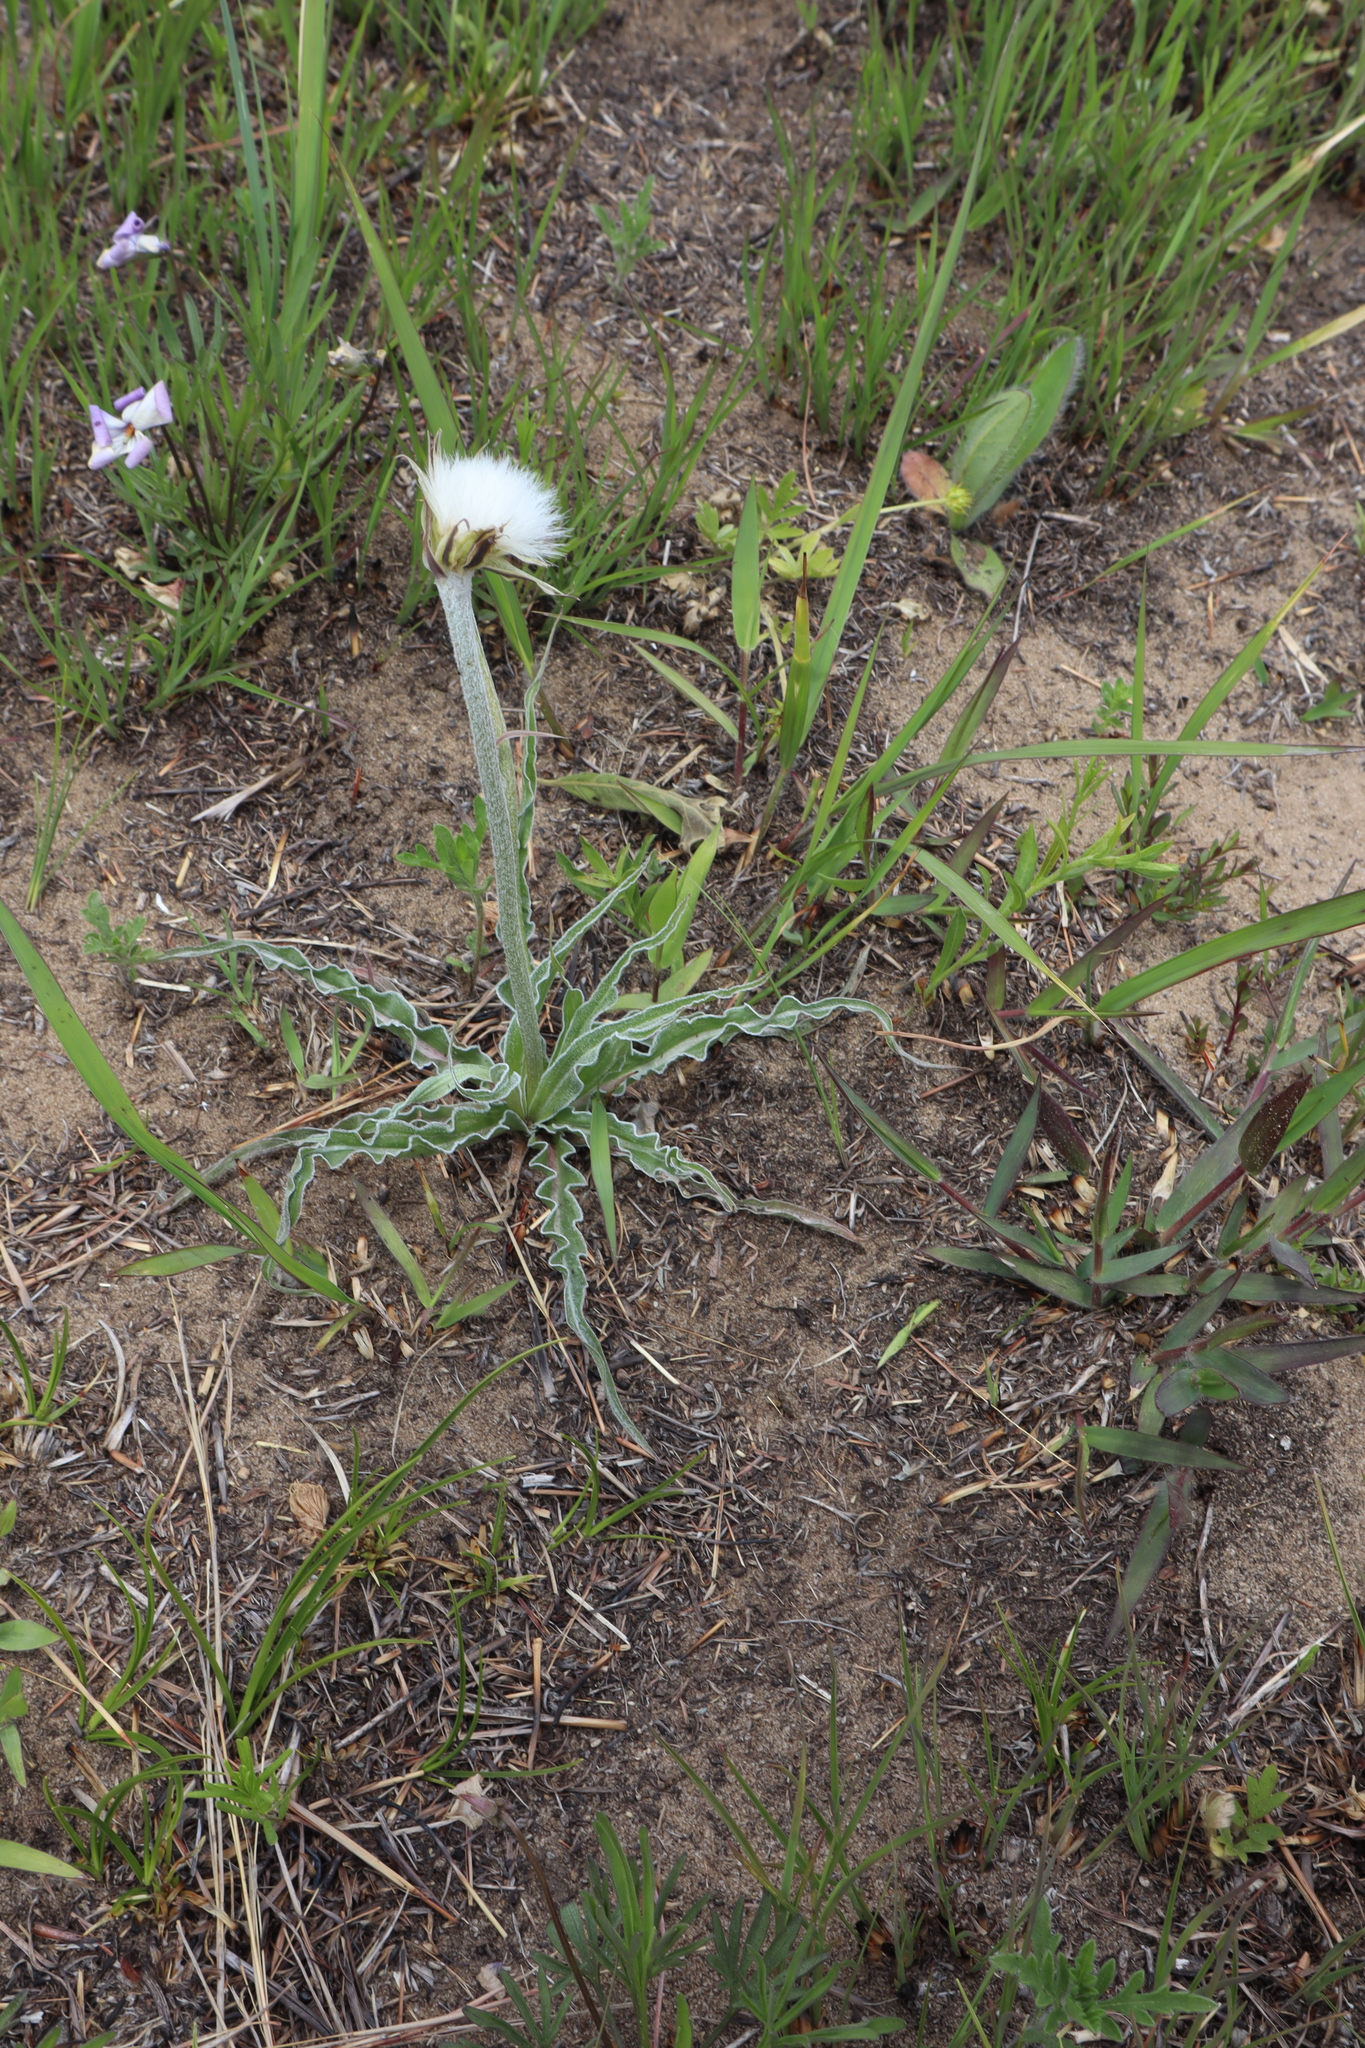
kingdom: Plantae
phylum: Tracheophyta
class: Magnoliopsida
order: Asterales
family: Asteraceae
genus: Microseris
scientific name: Microseris cuspidata
